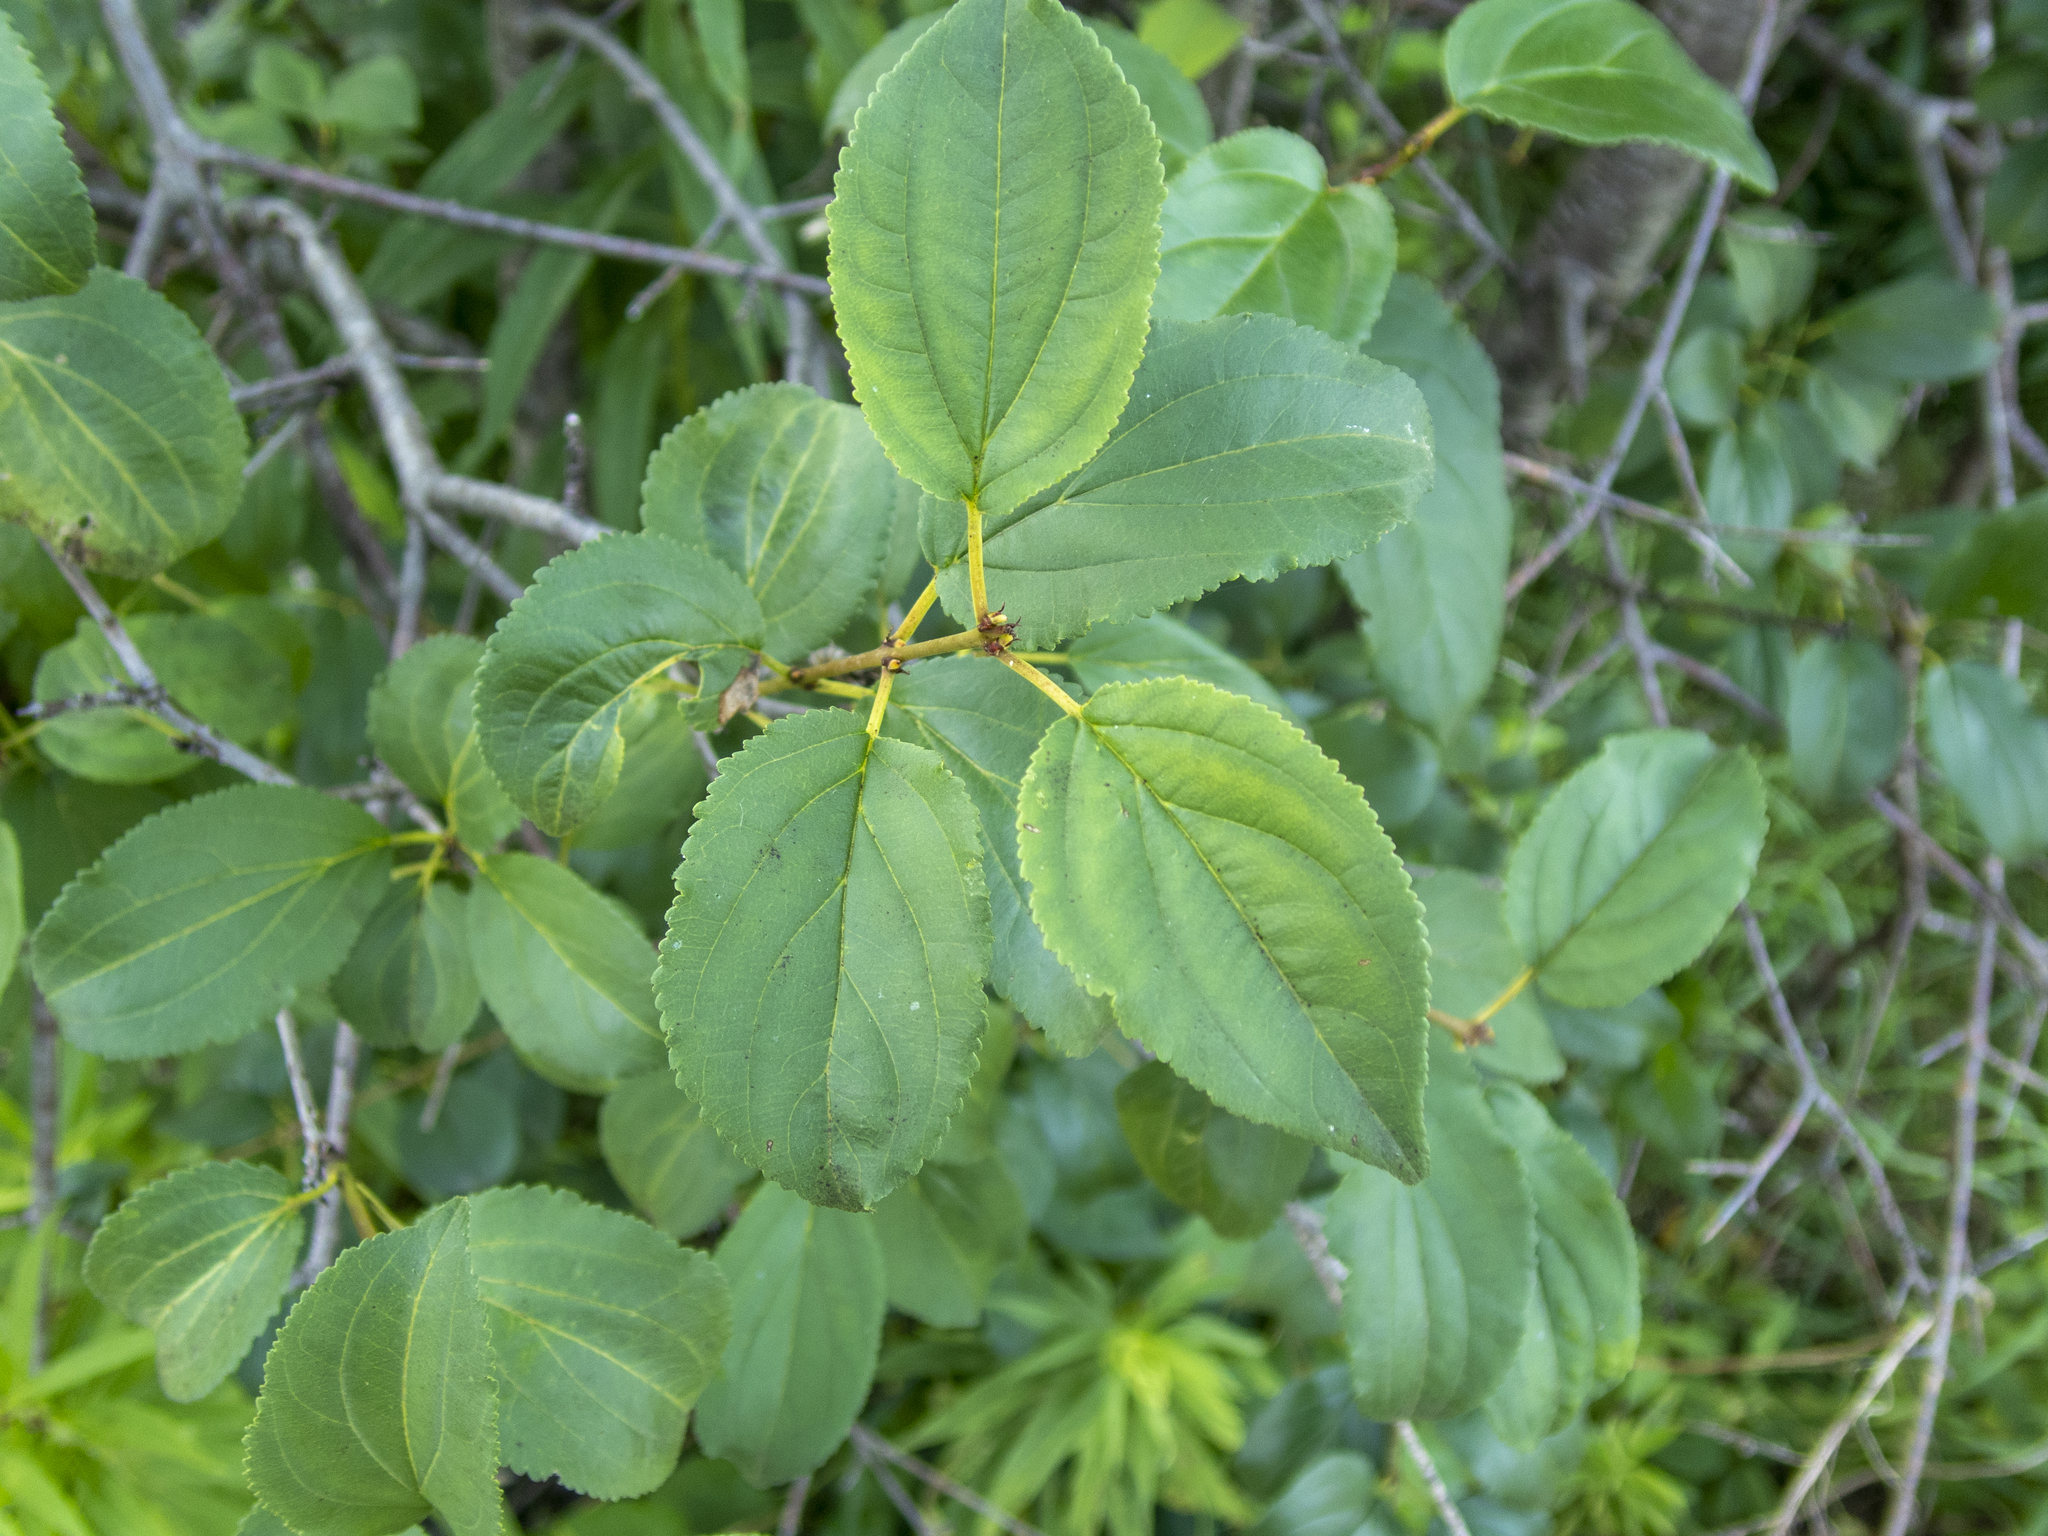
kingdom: Plantae
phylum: Tracheophyta
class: Magnoliopsida
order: Rosales
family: Rhamnaceae
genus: Rhamnus
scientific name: Rhamnus cathartica
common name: Common buckthorn
